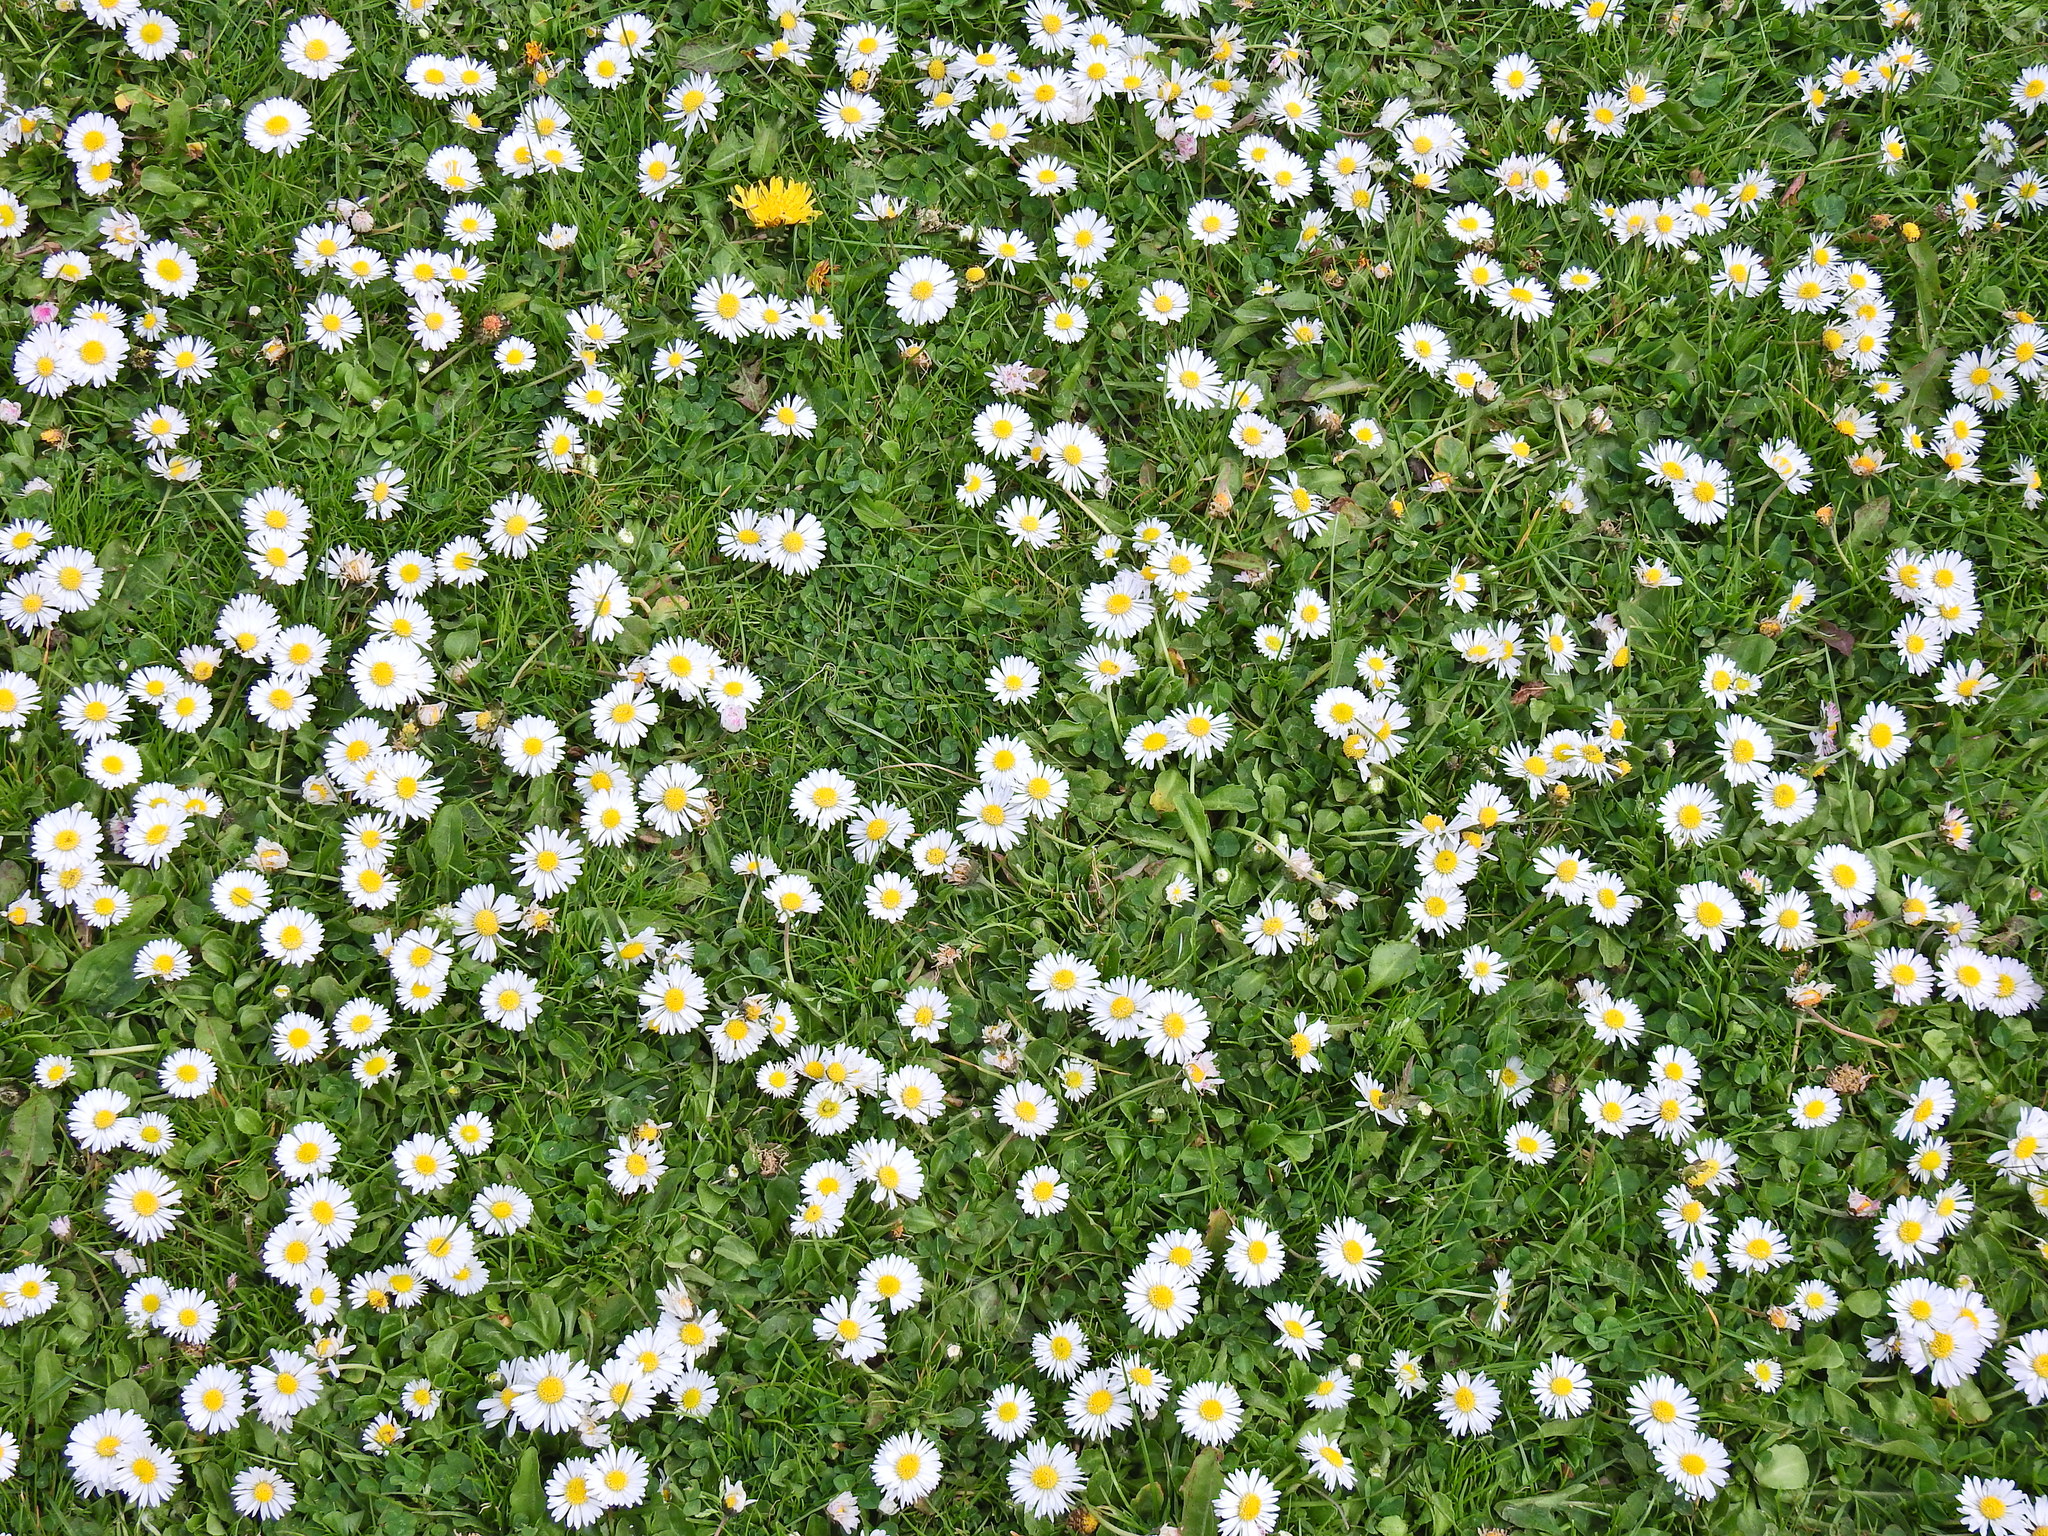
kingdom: Plantae
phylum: Tracheophyta
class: Magnoliopsida
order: Asterales
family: Asteraceae
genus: Bellis
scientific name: Bellis perennis
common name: Lawndaisy
